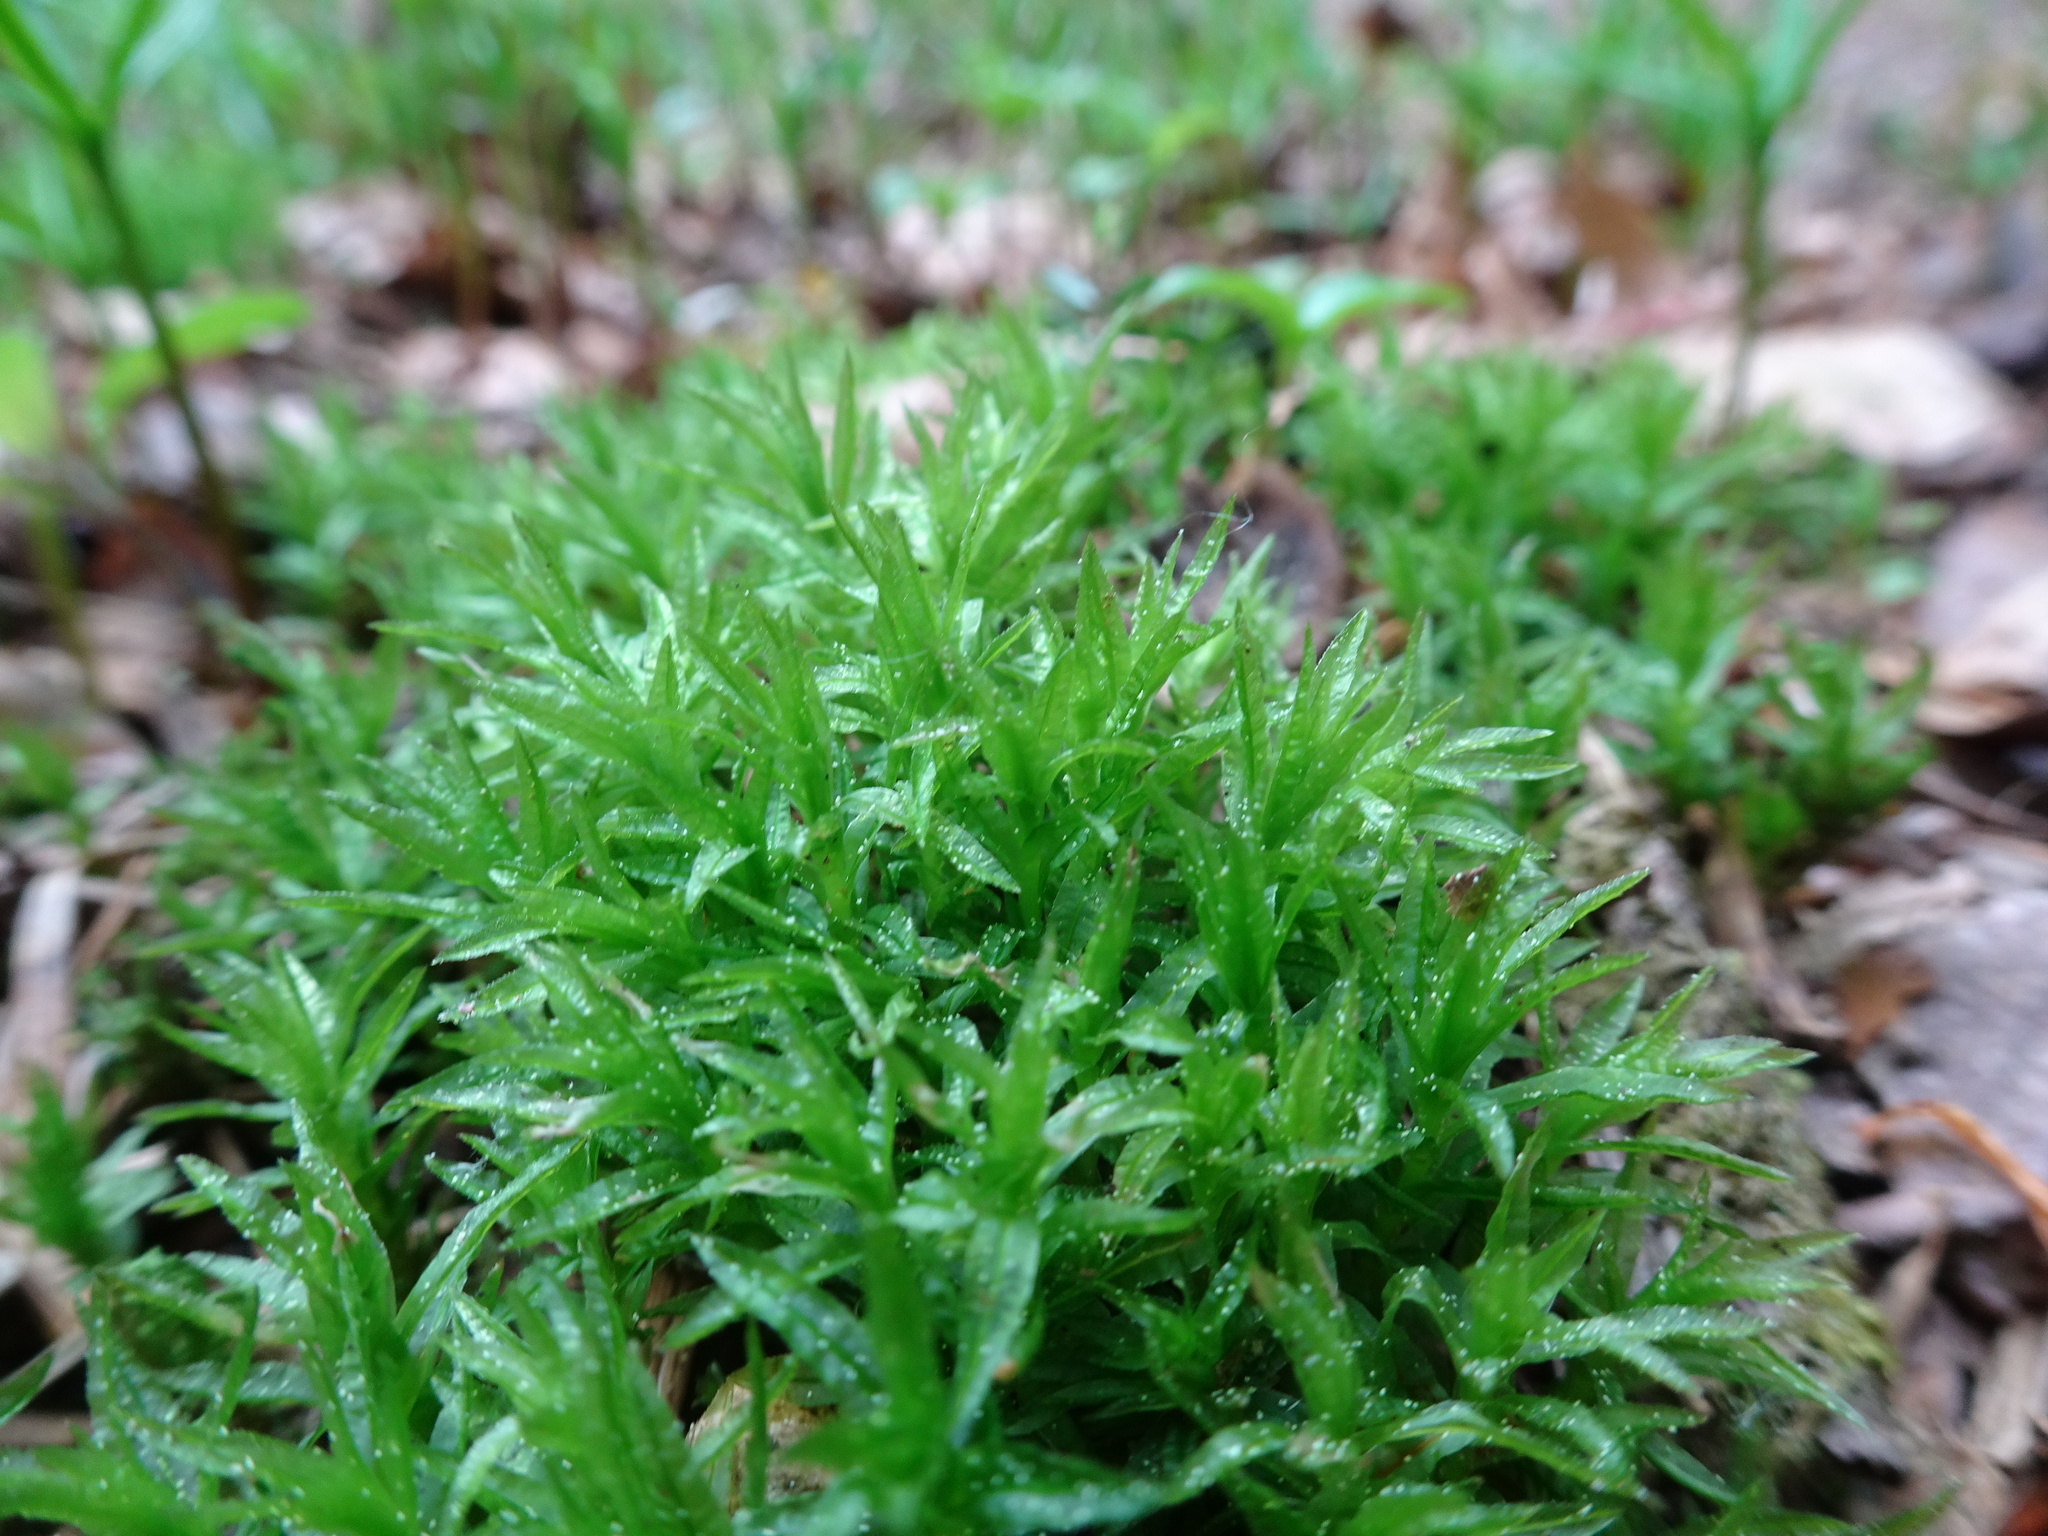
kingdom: Plantae
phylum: Bryophyta
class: Polytrichopsida
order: Polytrichales
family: Polytrichaceae
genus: Atrichum
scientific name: Atrichum undulatum
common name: Common smoothcap
